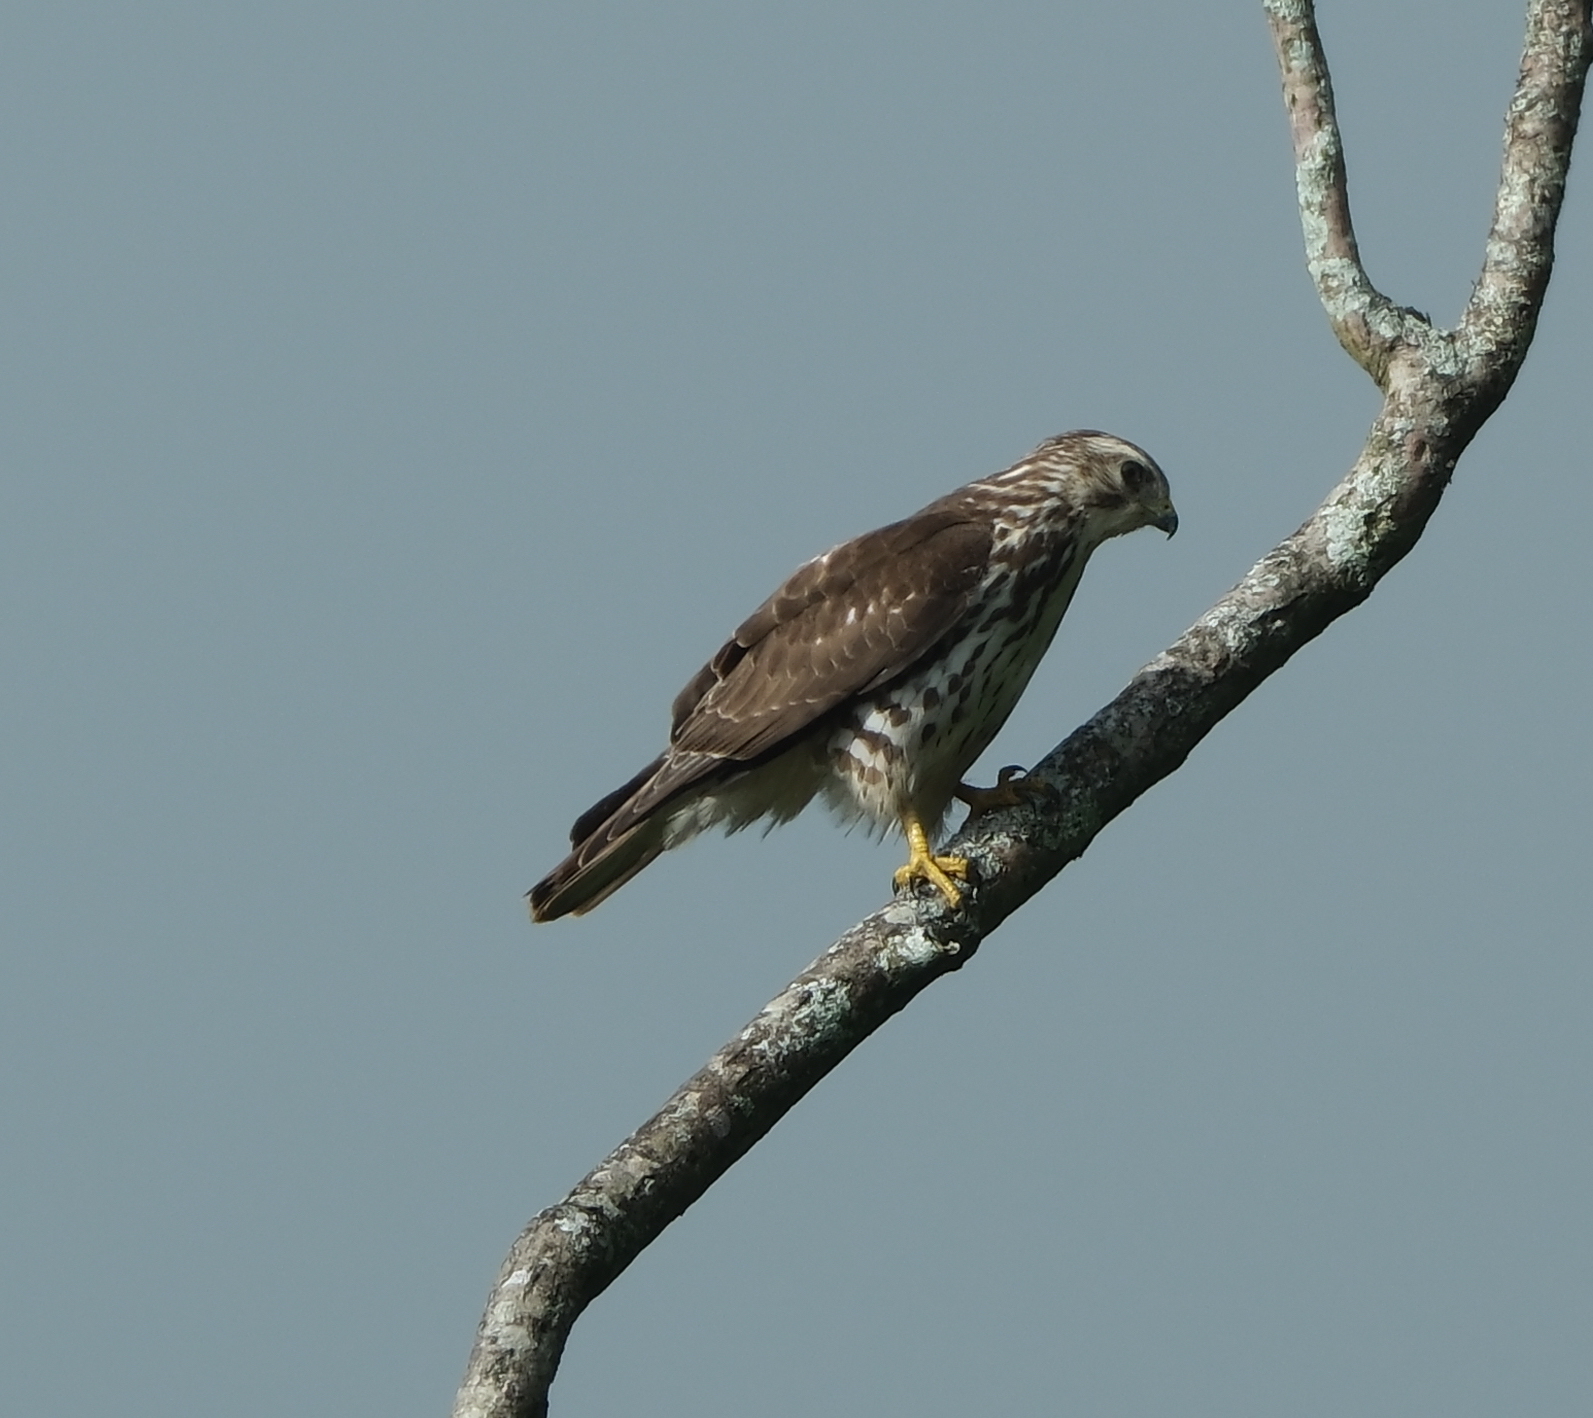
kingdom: Animalia
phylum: Chordata
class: Aves
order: Accipitriformes
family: Accipitridae
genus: Buteo
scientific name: Buteo platypterus
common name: Broad-winged hawk
